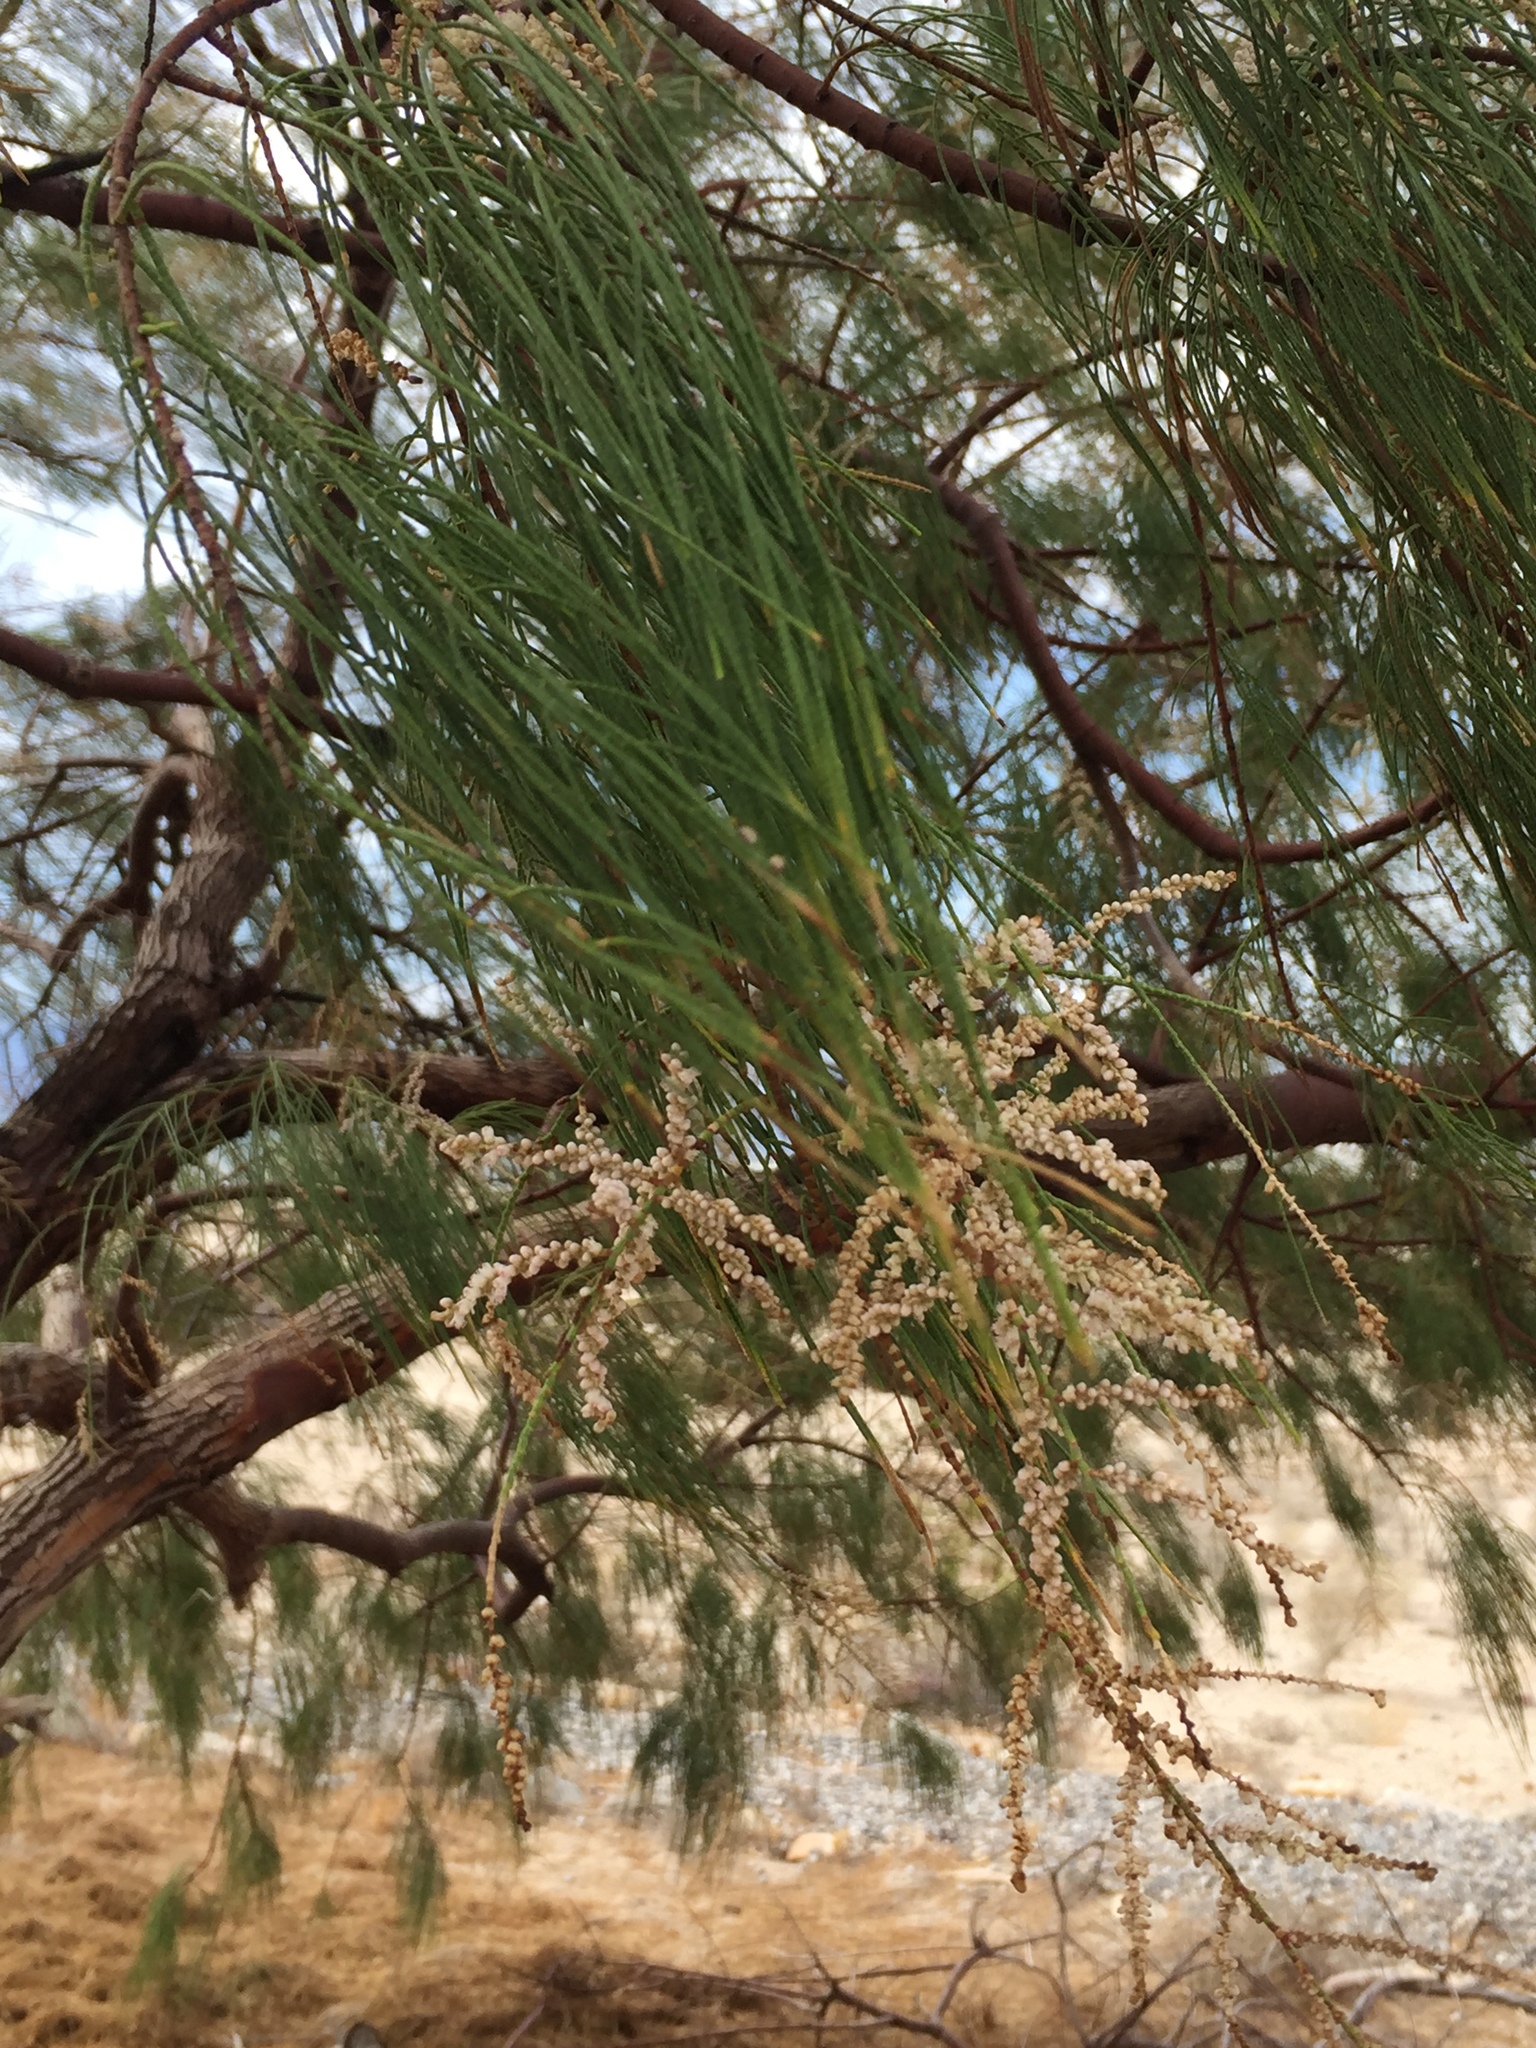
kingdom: Plantae
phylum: Tracheophyta
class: Magnoliopsida
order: Caryophyllales
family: Tamaricaceae
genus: Tamarix
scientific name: Tamarix aphylla
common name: Athel tamarisk
